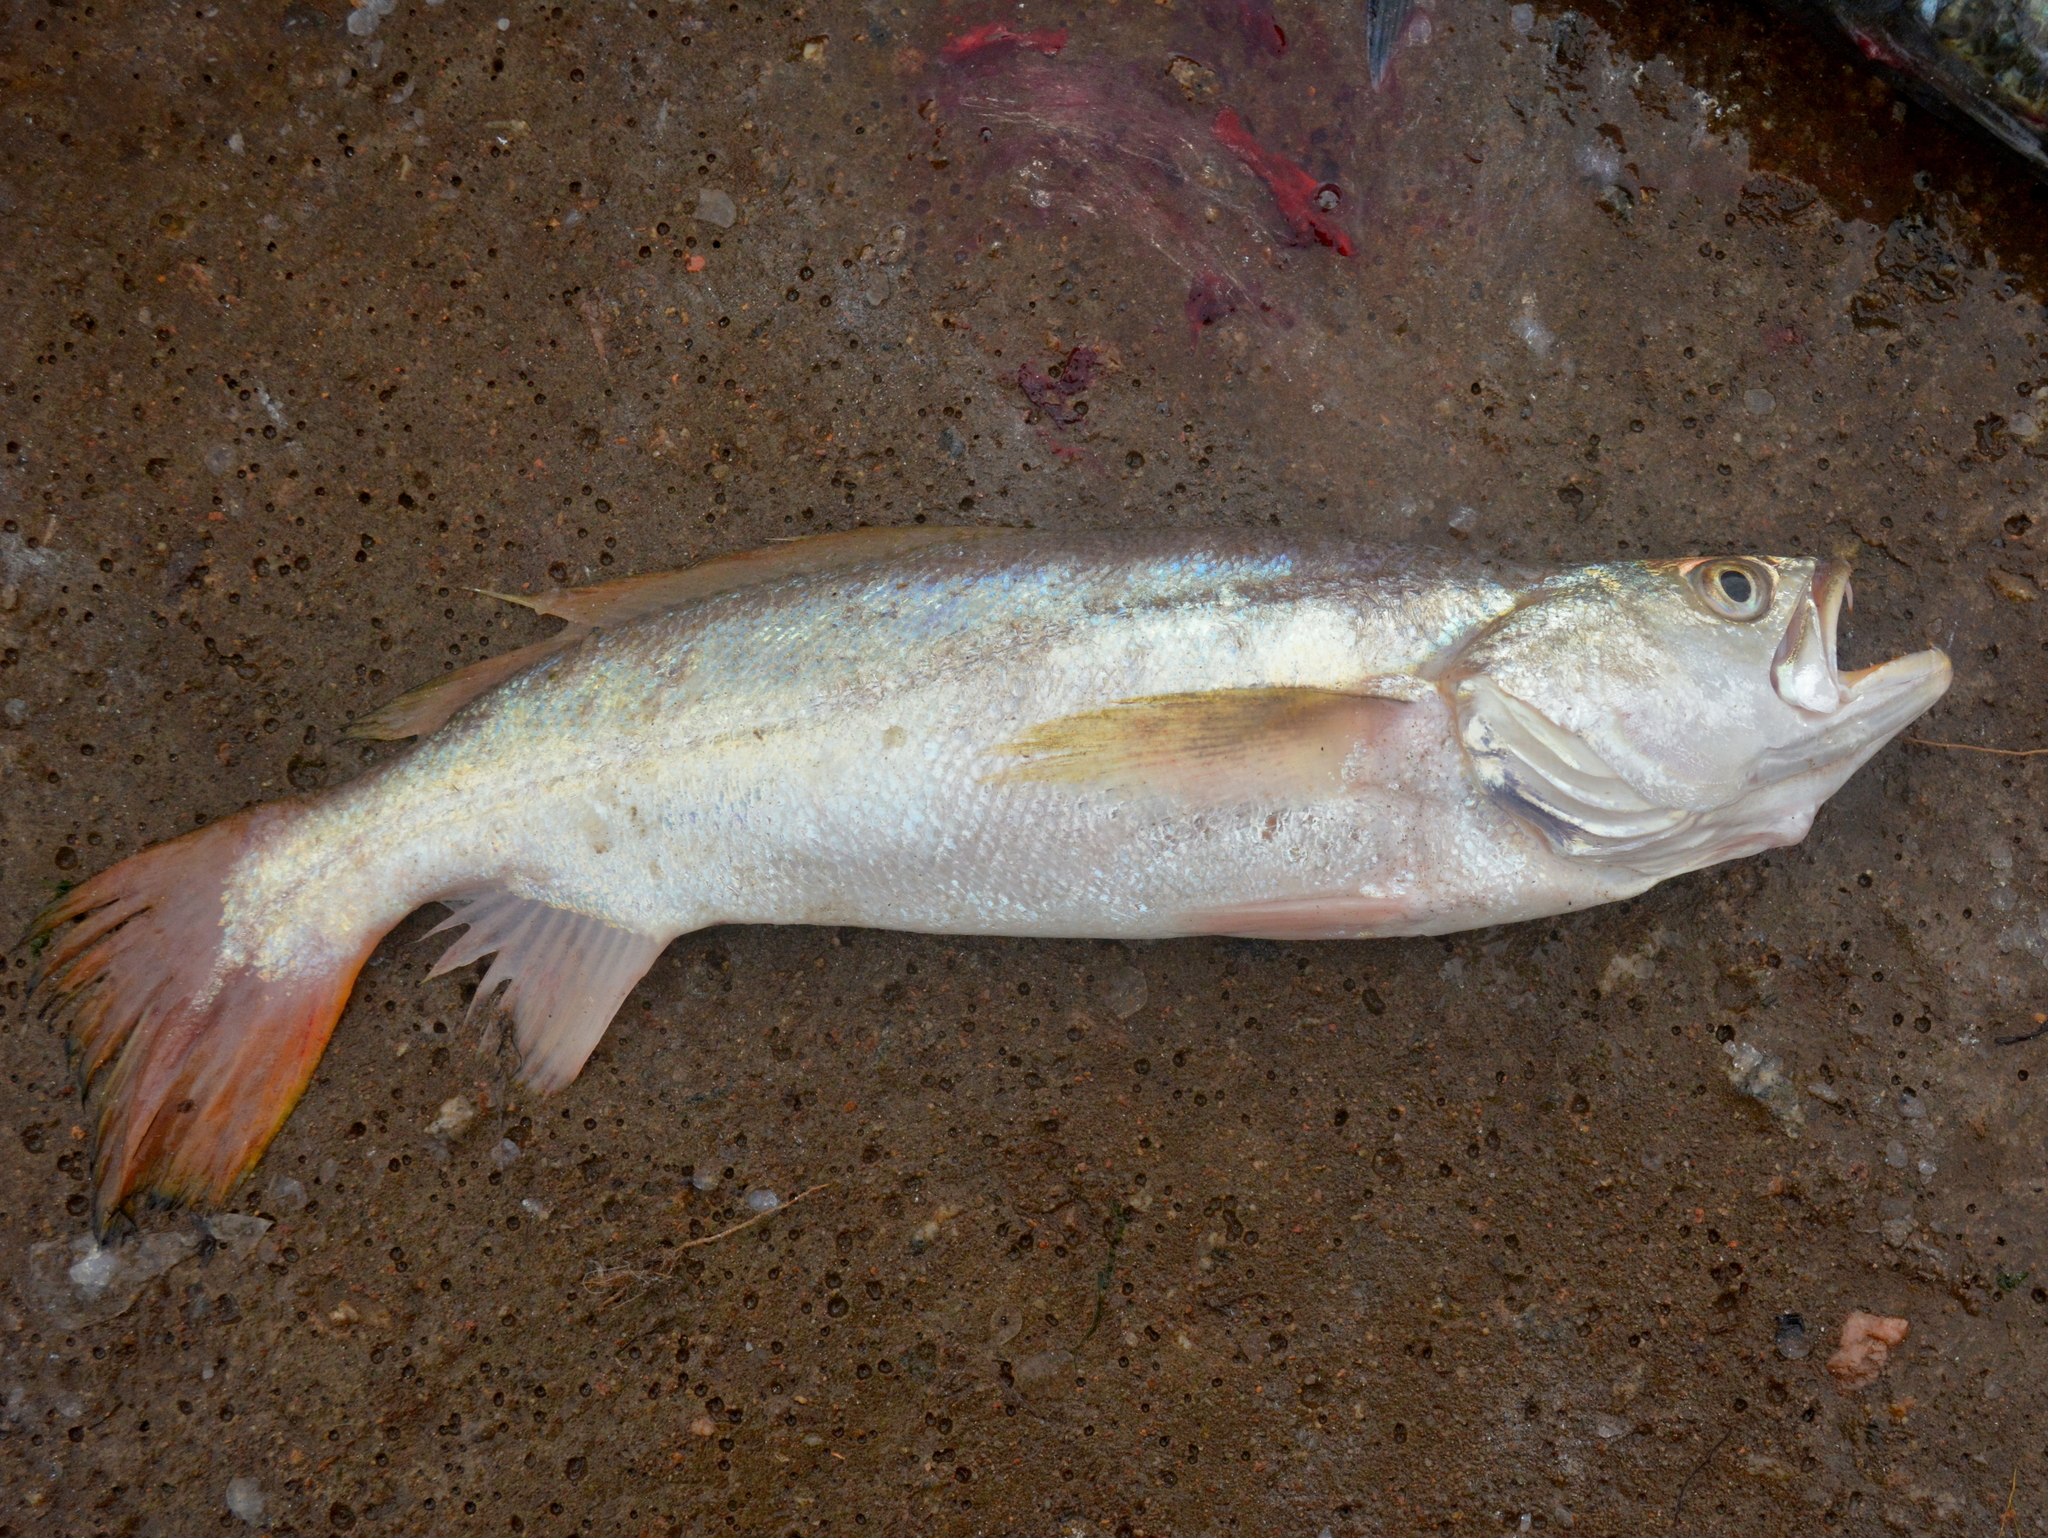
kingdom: Animalia
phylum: Chordata
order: Perciformes
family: Sciaenidae
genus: Macrodon
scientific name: Macrodon ancylodon
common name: King weakfish
